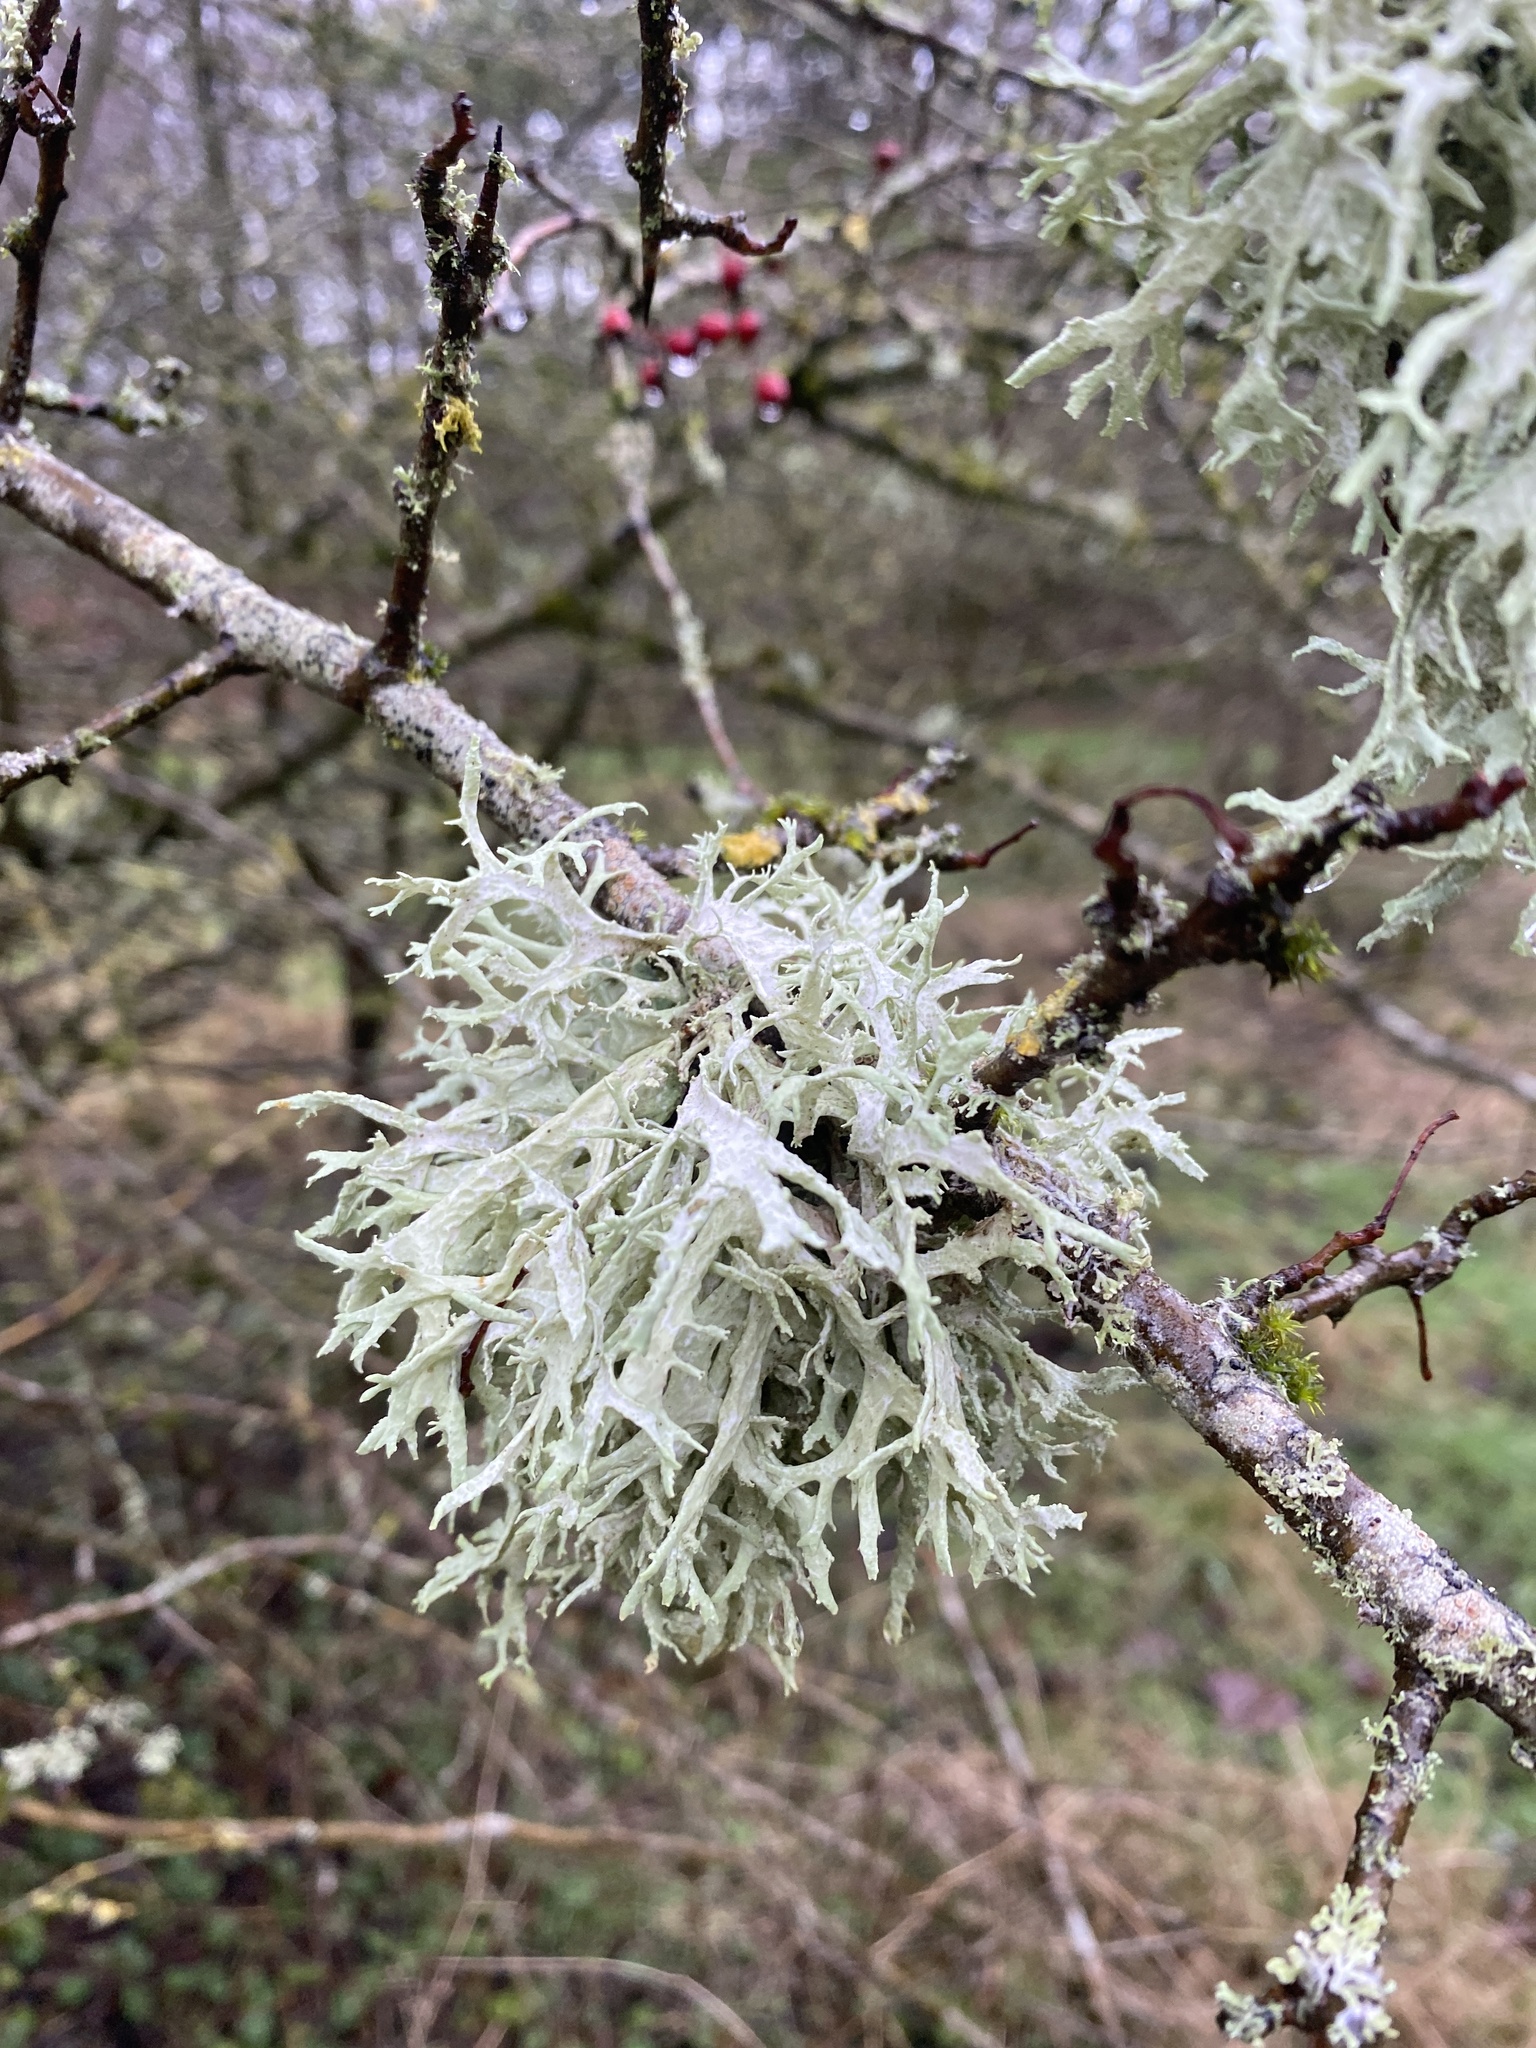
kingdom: Fungi
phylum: Ascomycota
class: Lecanoromycetes
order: Lecanorales
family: Parmeliaceae
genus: Evernia
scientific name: Evernia prunastri
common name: Oak moss
